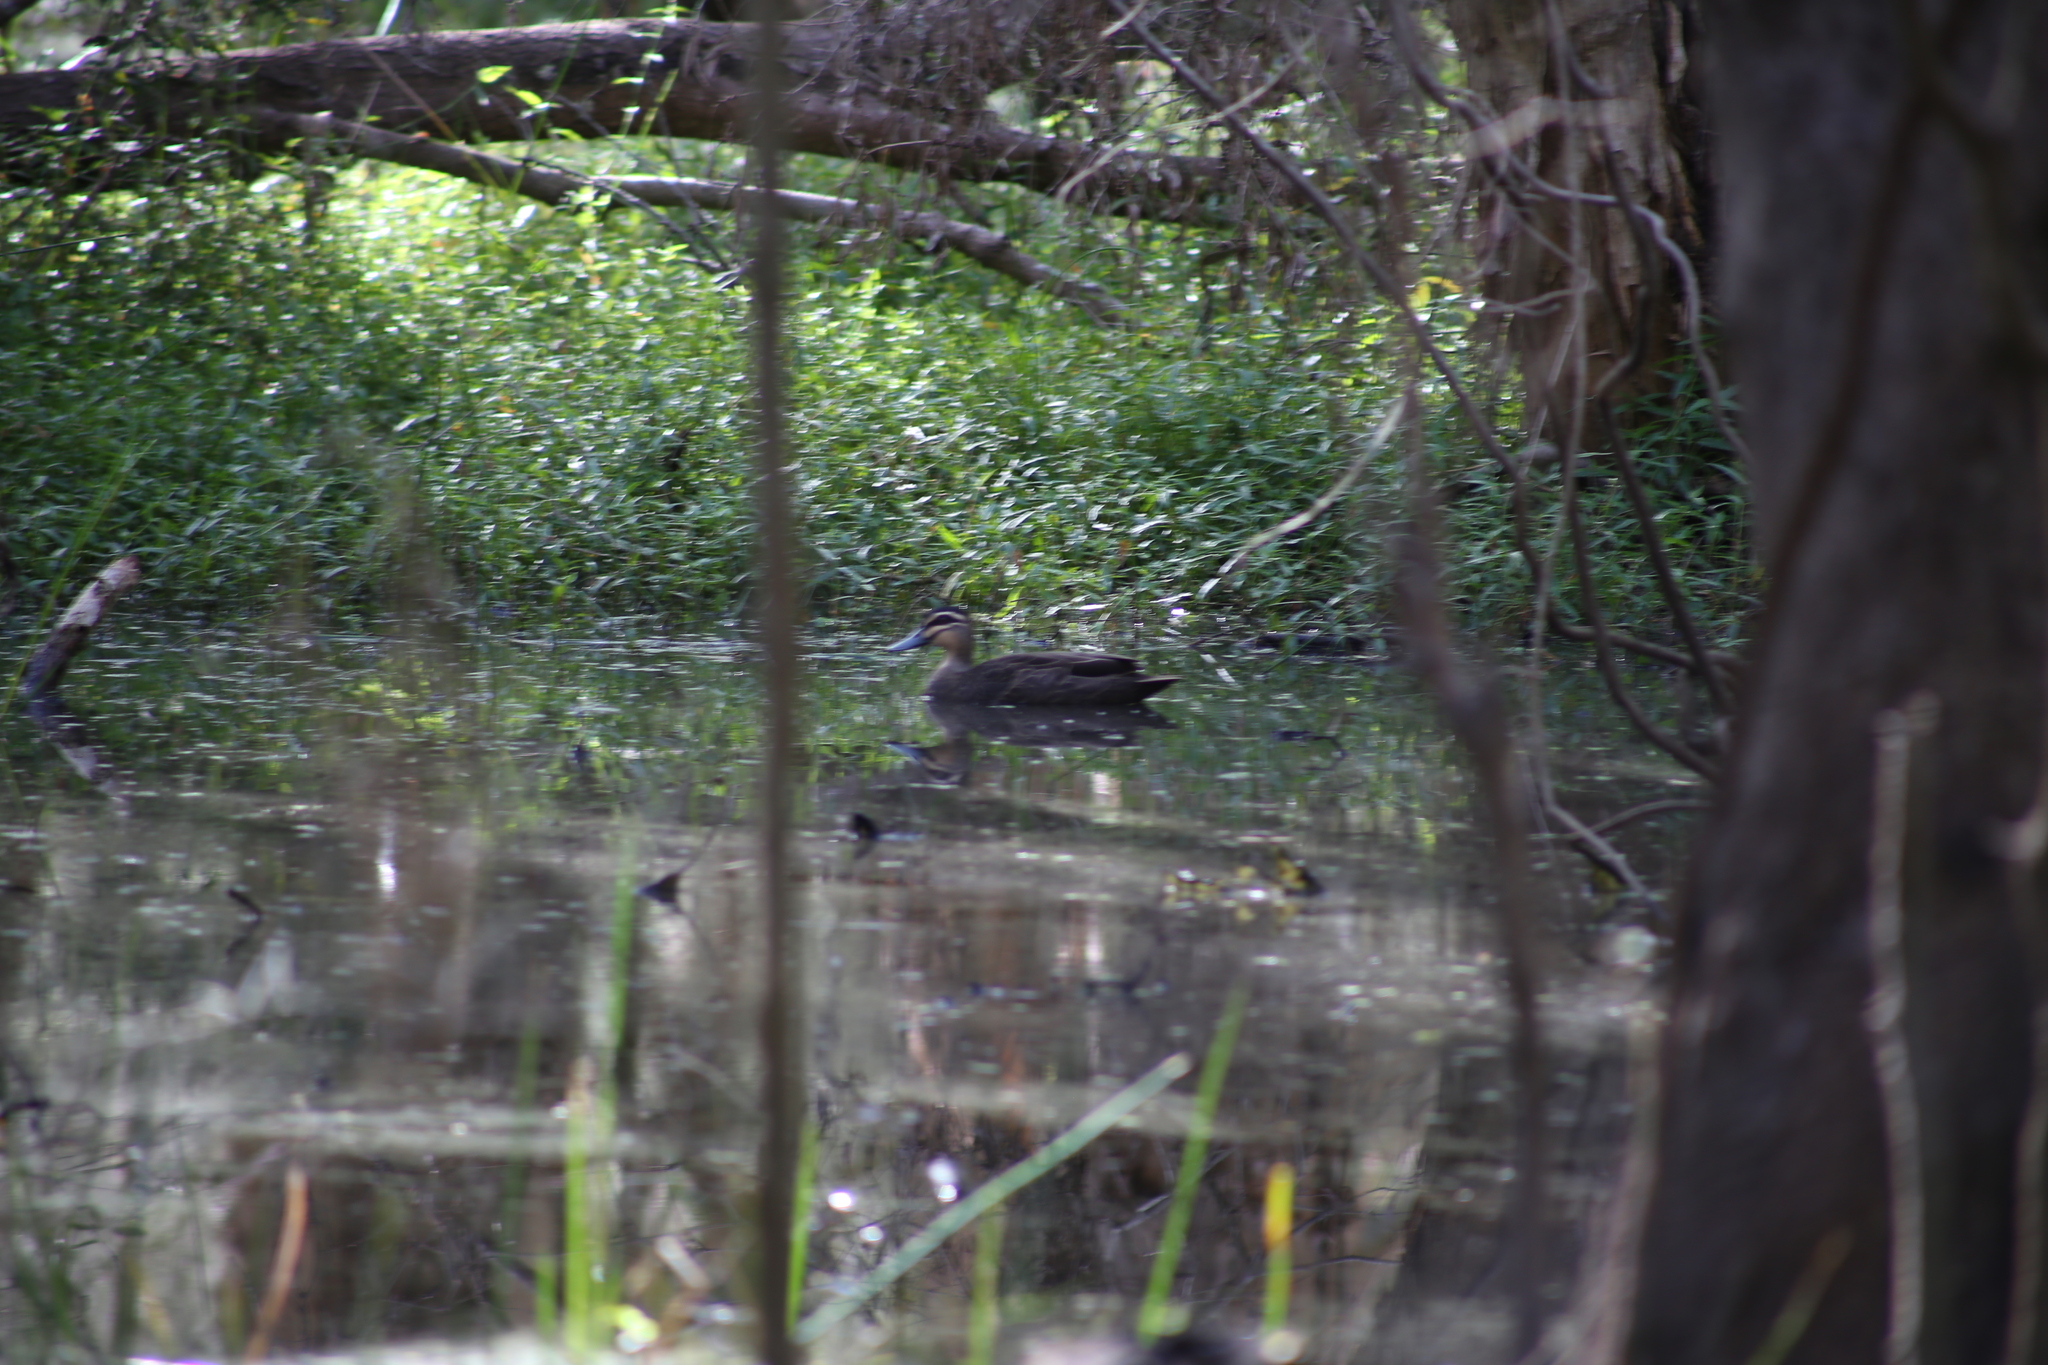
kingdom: Animalia
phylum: Chordata
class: Aves
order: Anseriformes
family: Anatidae
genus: Anas
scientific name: Anas superciliosa
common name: Pacific black duck
